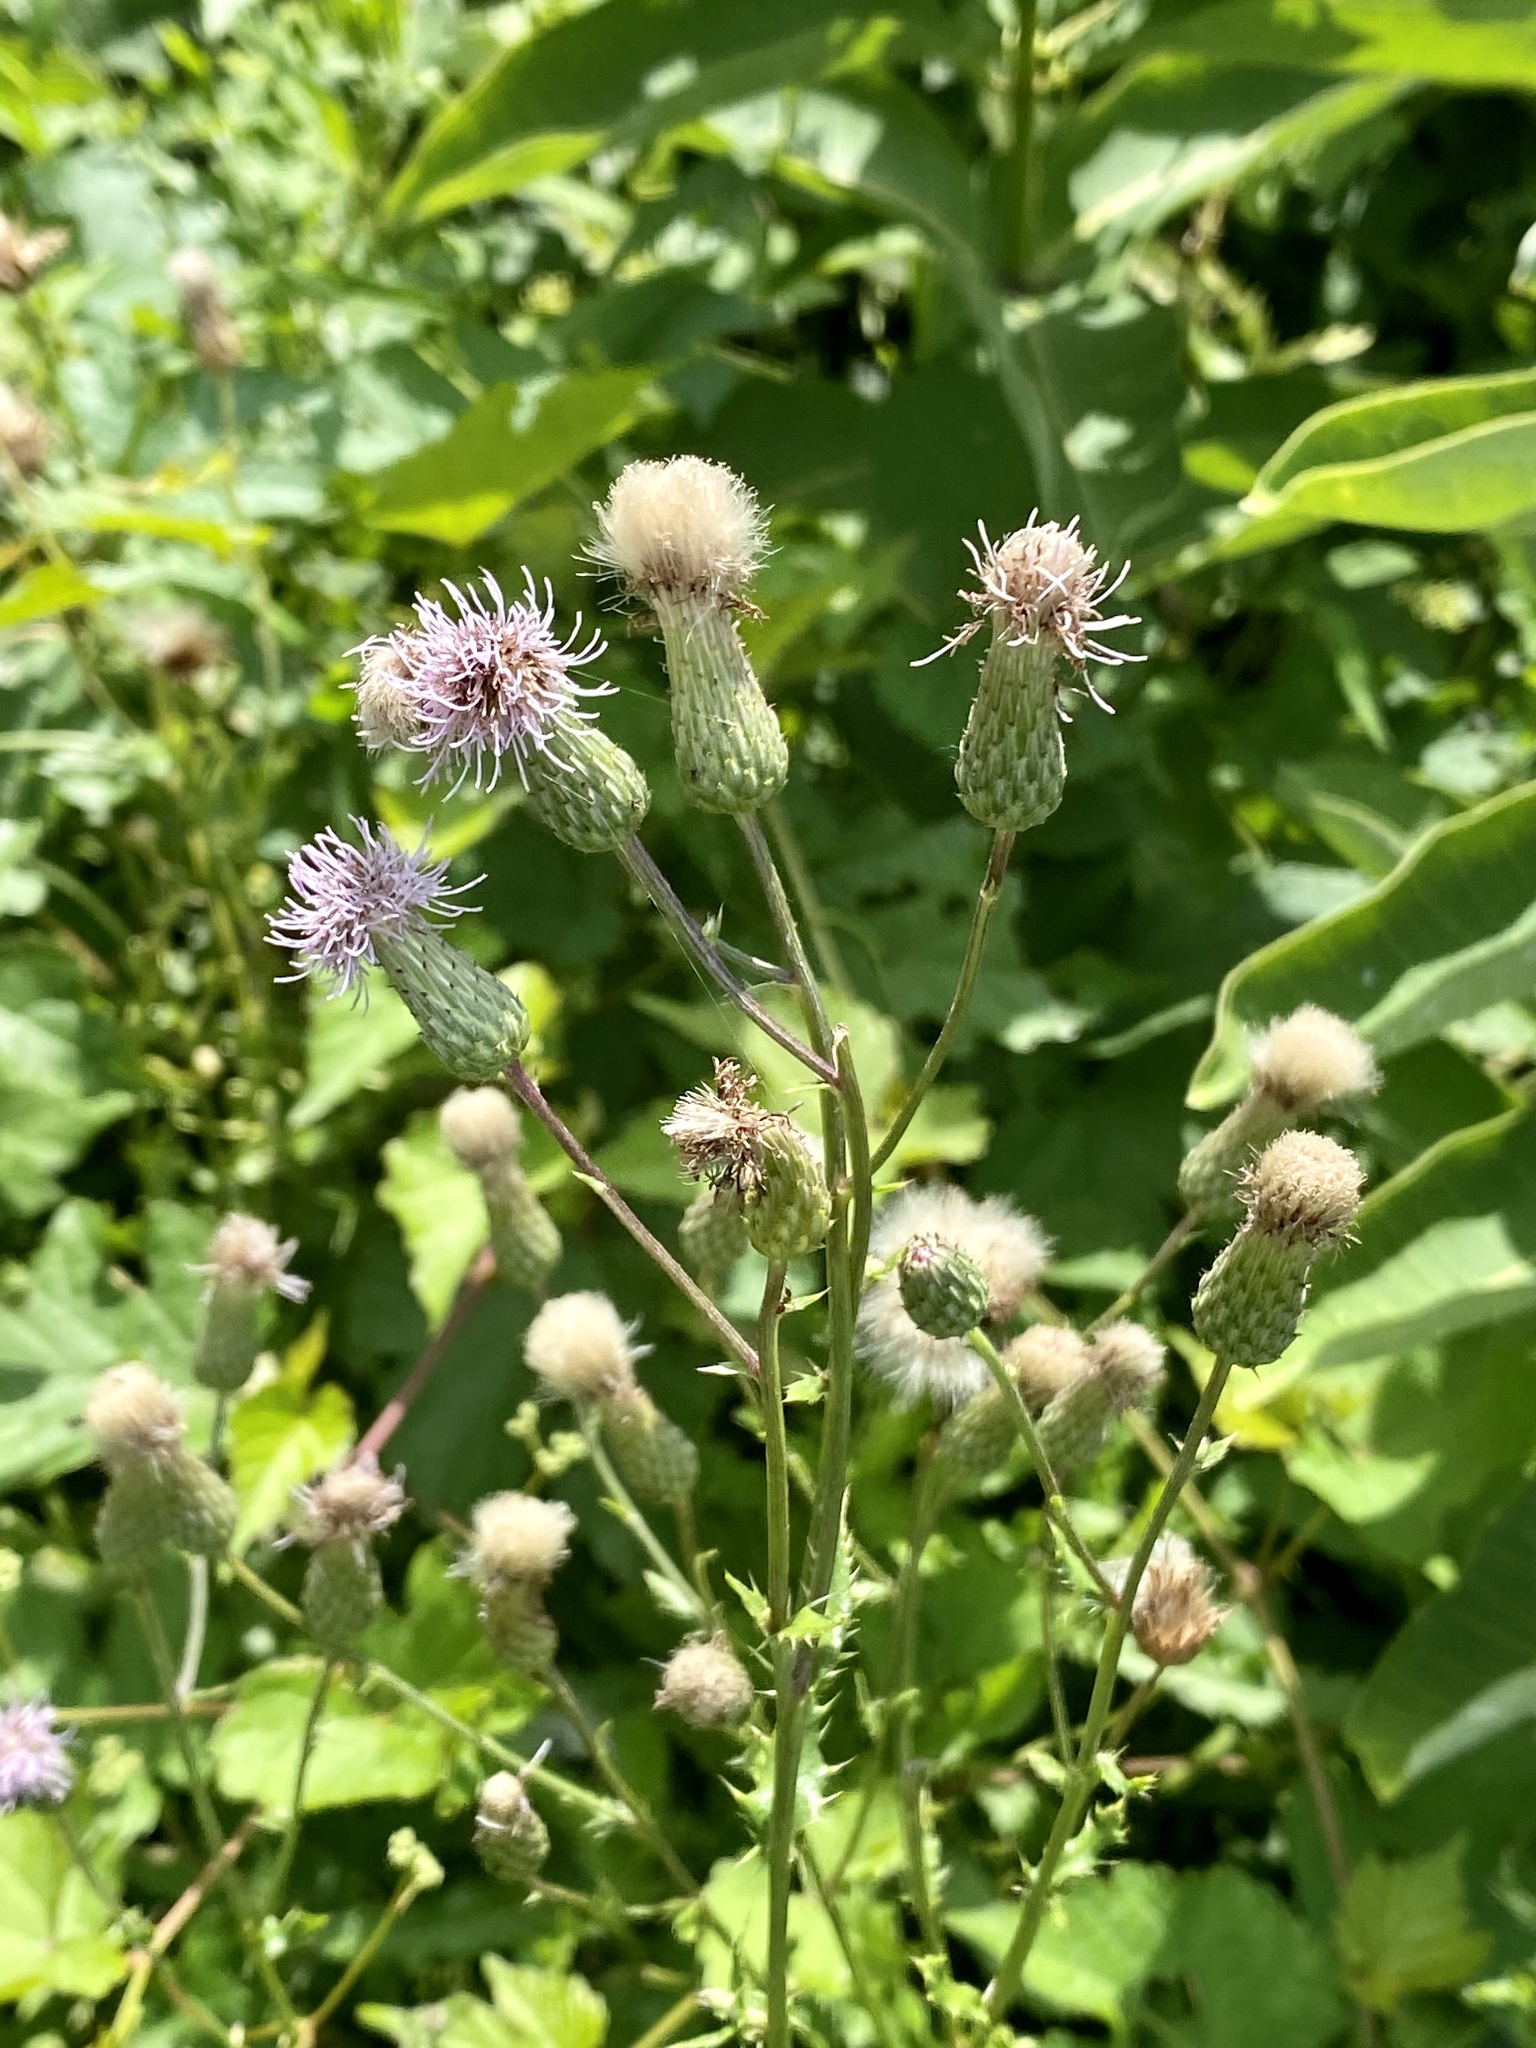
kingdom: Plantae
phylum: Tracheophyta
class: Magnoliopsida
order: Asterales
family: Asteraceae
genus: Cirsium
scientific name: Cirsium arvense
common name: Creeping thistle
